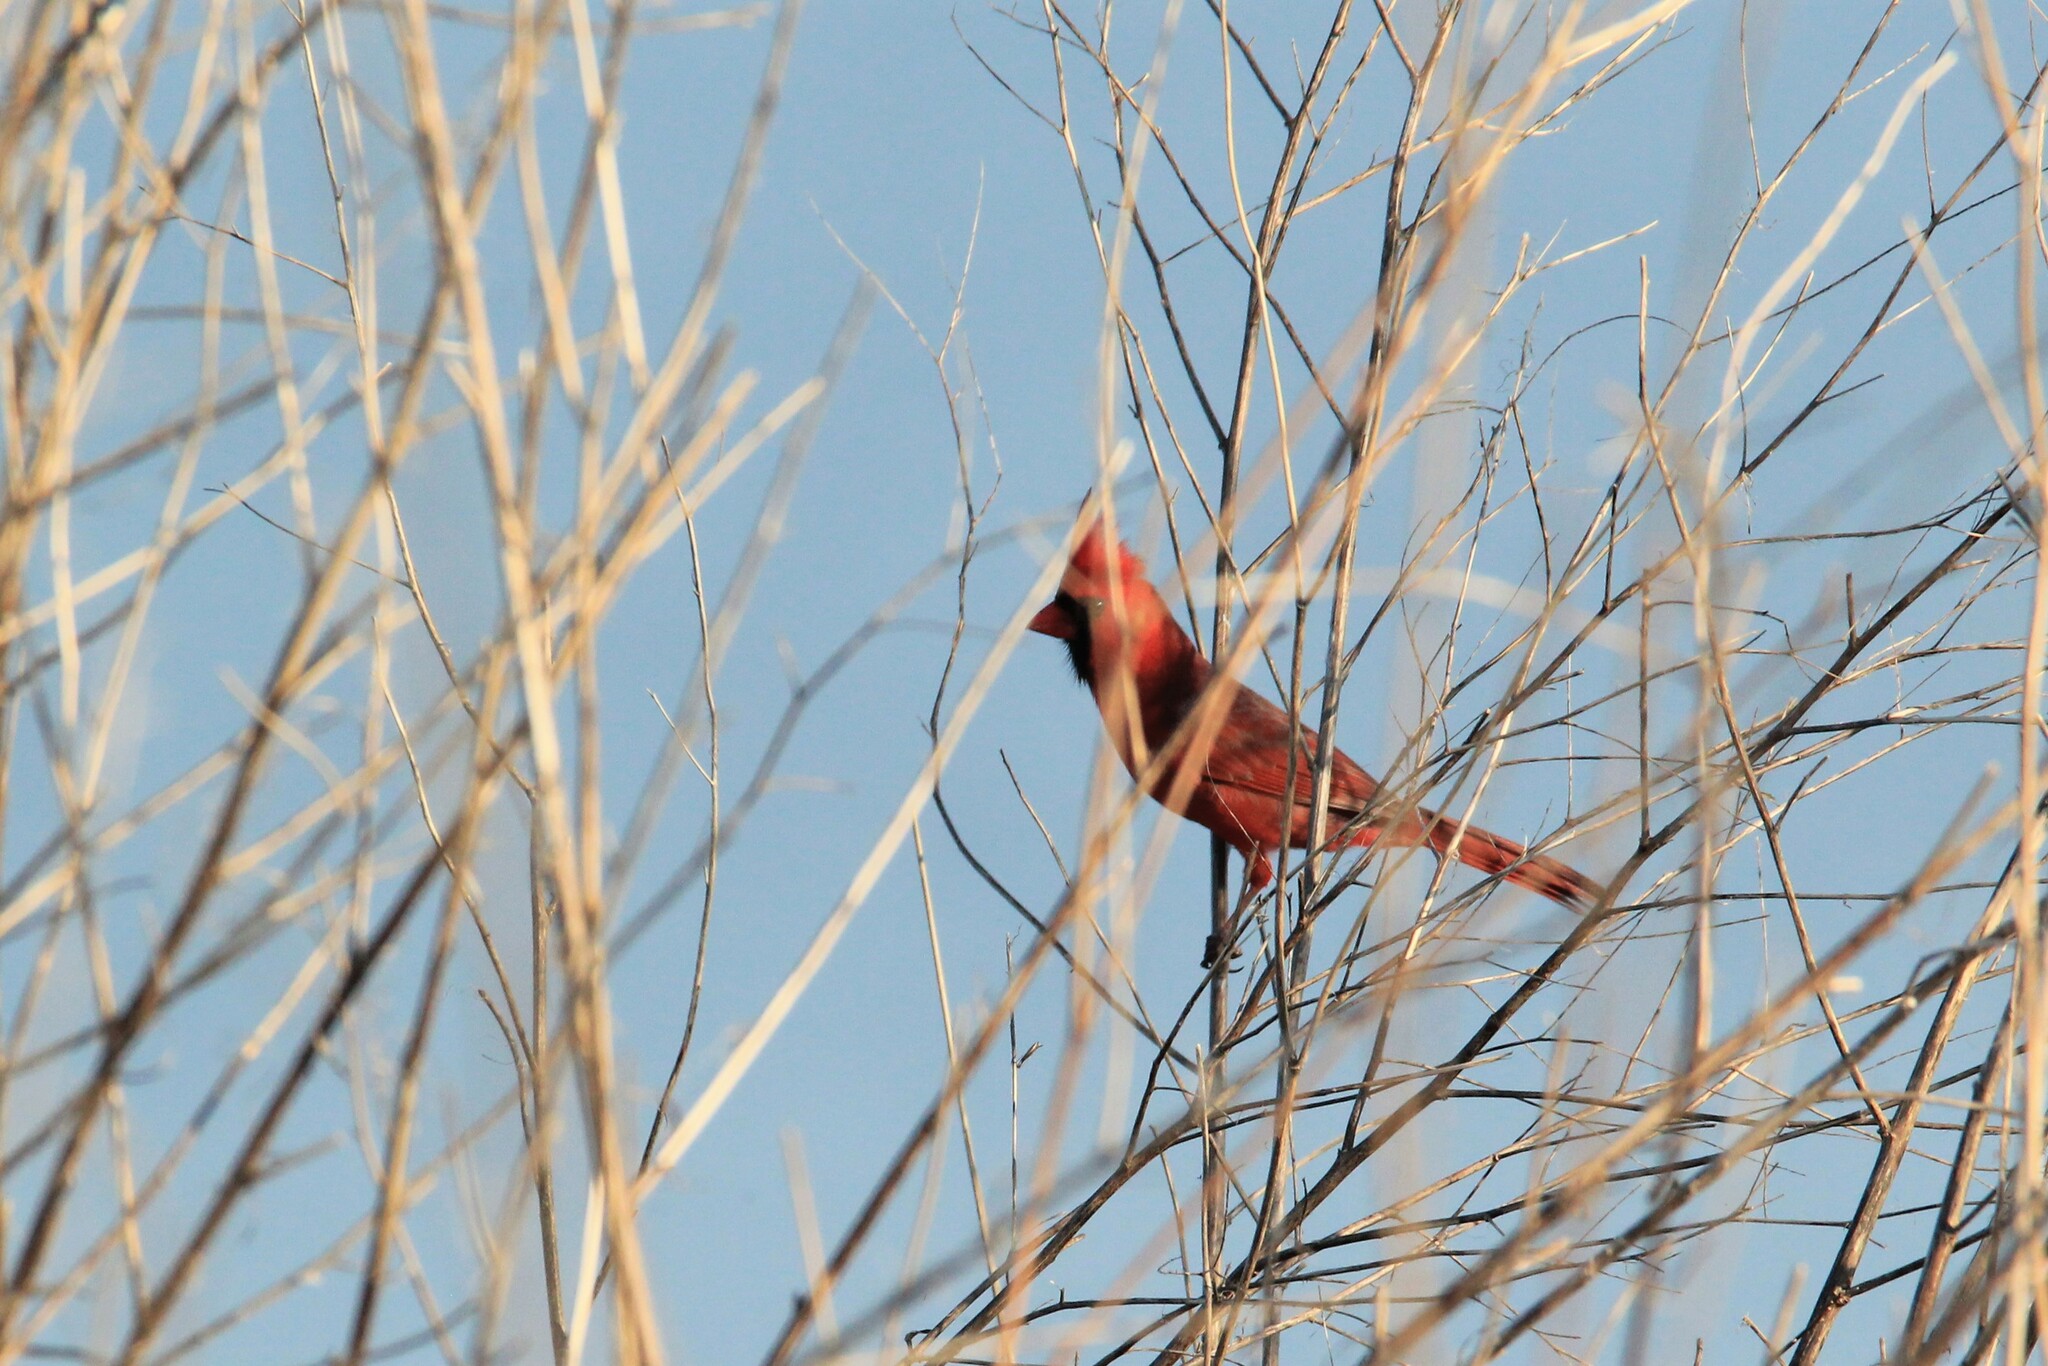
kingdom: Animalia
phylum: Chordata
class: Aves
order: Passeriformes
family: Cardinalidae
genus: Cardinalis
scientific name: Cardinalis cardinalis
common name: Northern cardinal
